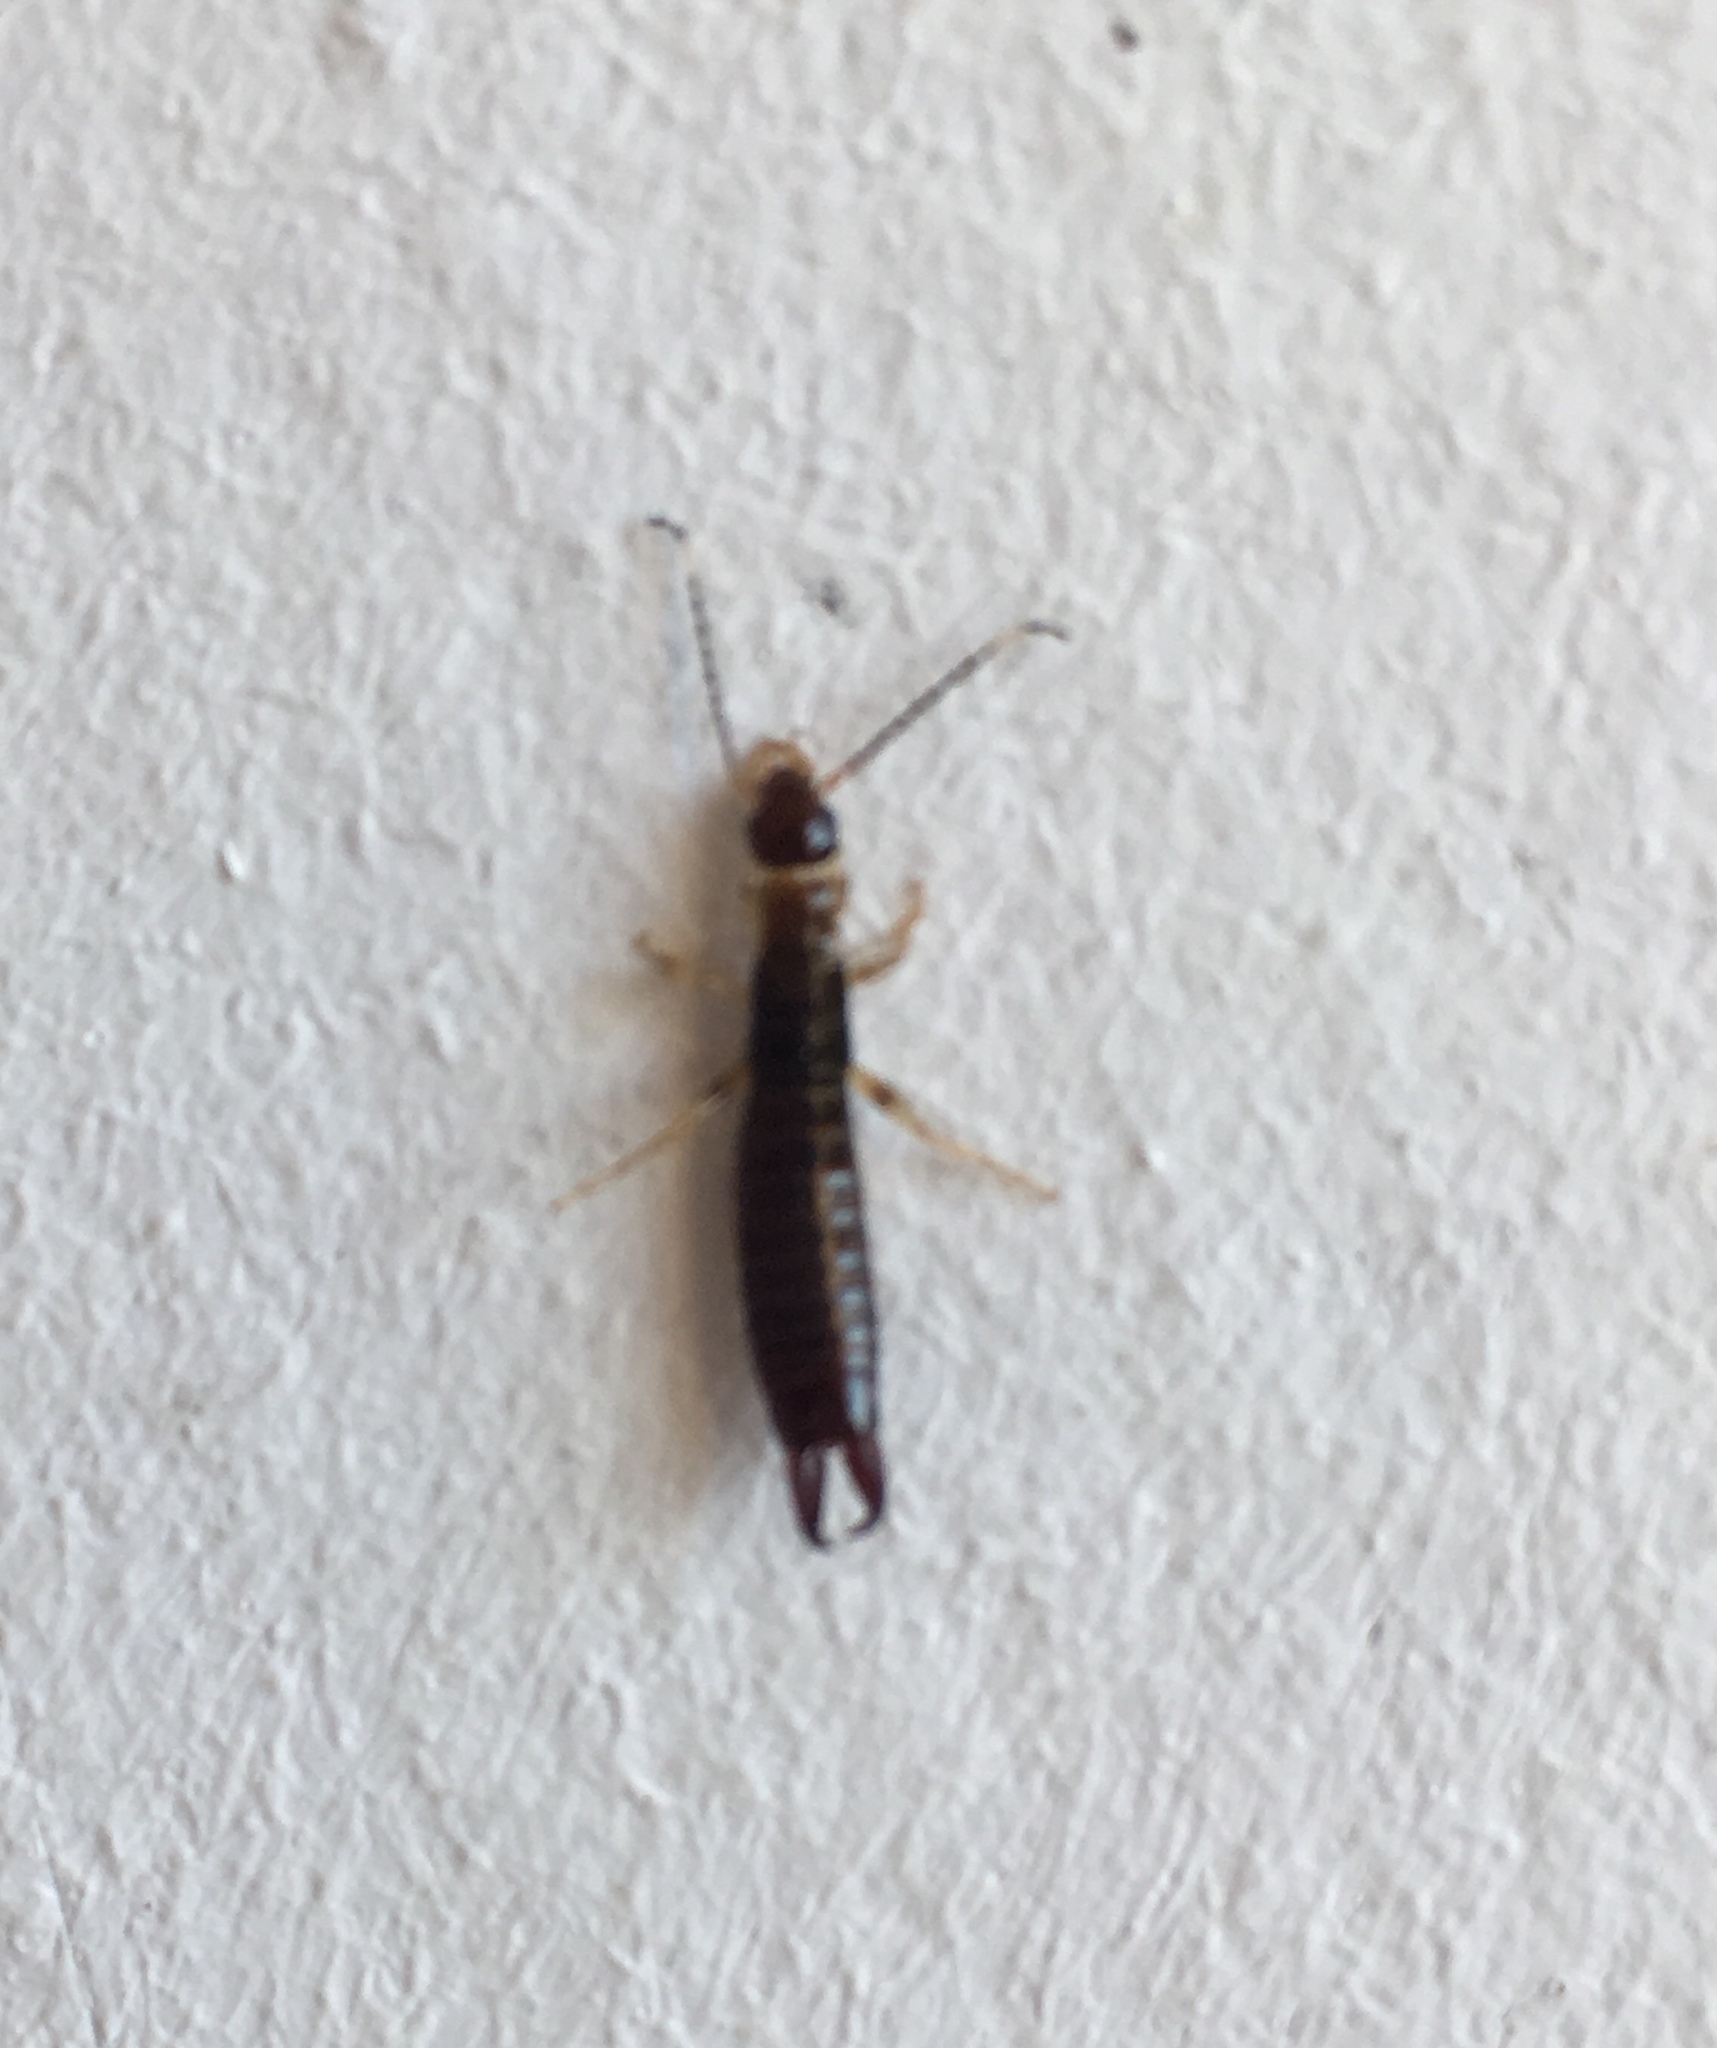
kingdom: Animalia
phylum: Arthropoda
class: Insecta
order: Dermaptera
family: Anisolabididae
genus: Euborellia
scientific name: Euborellia annulipes
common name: Ringlegged earwig
